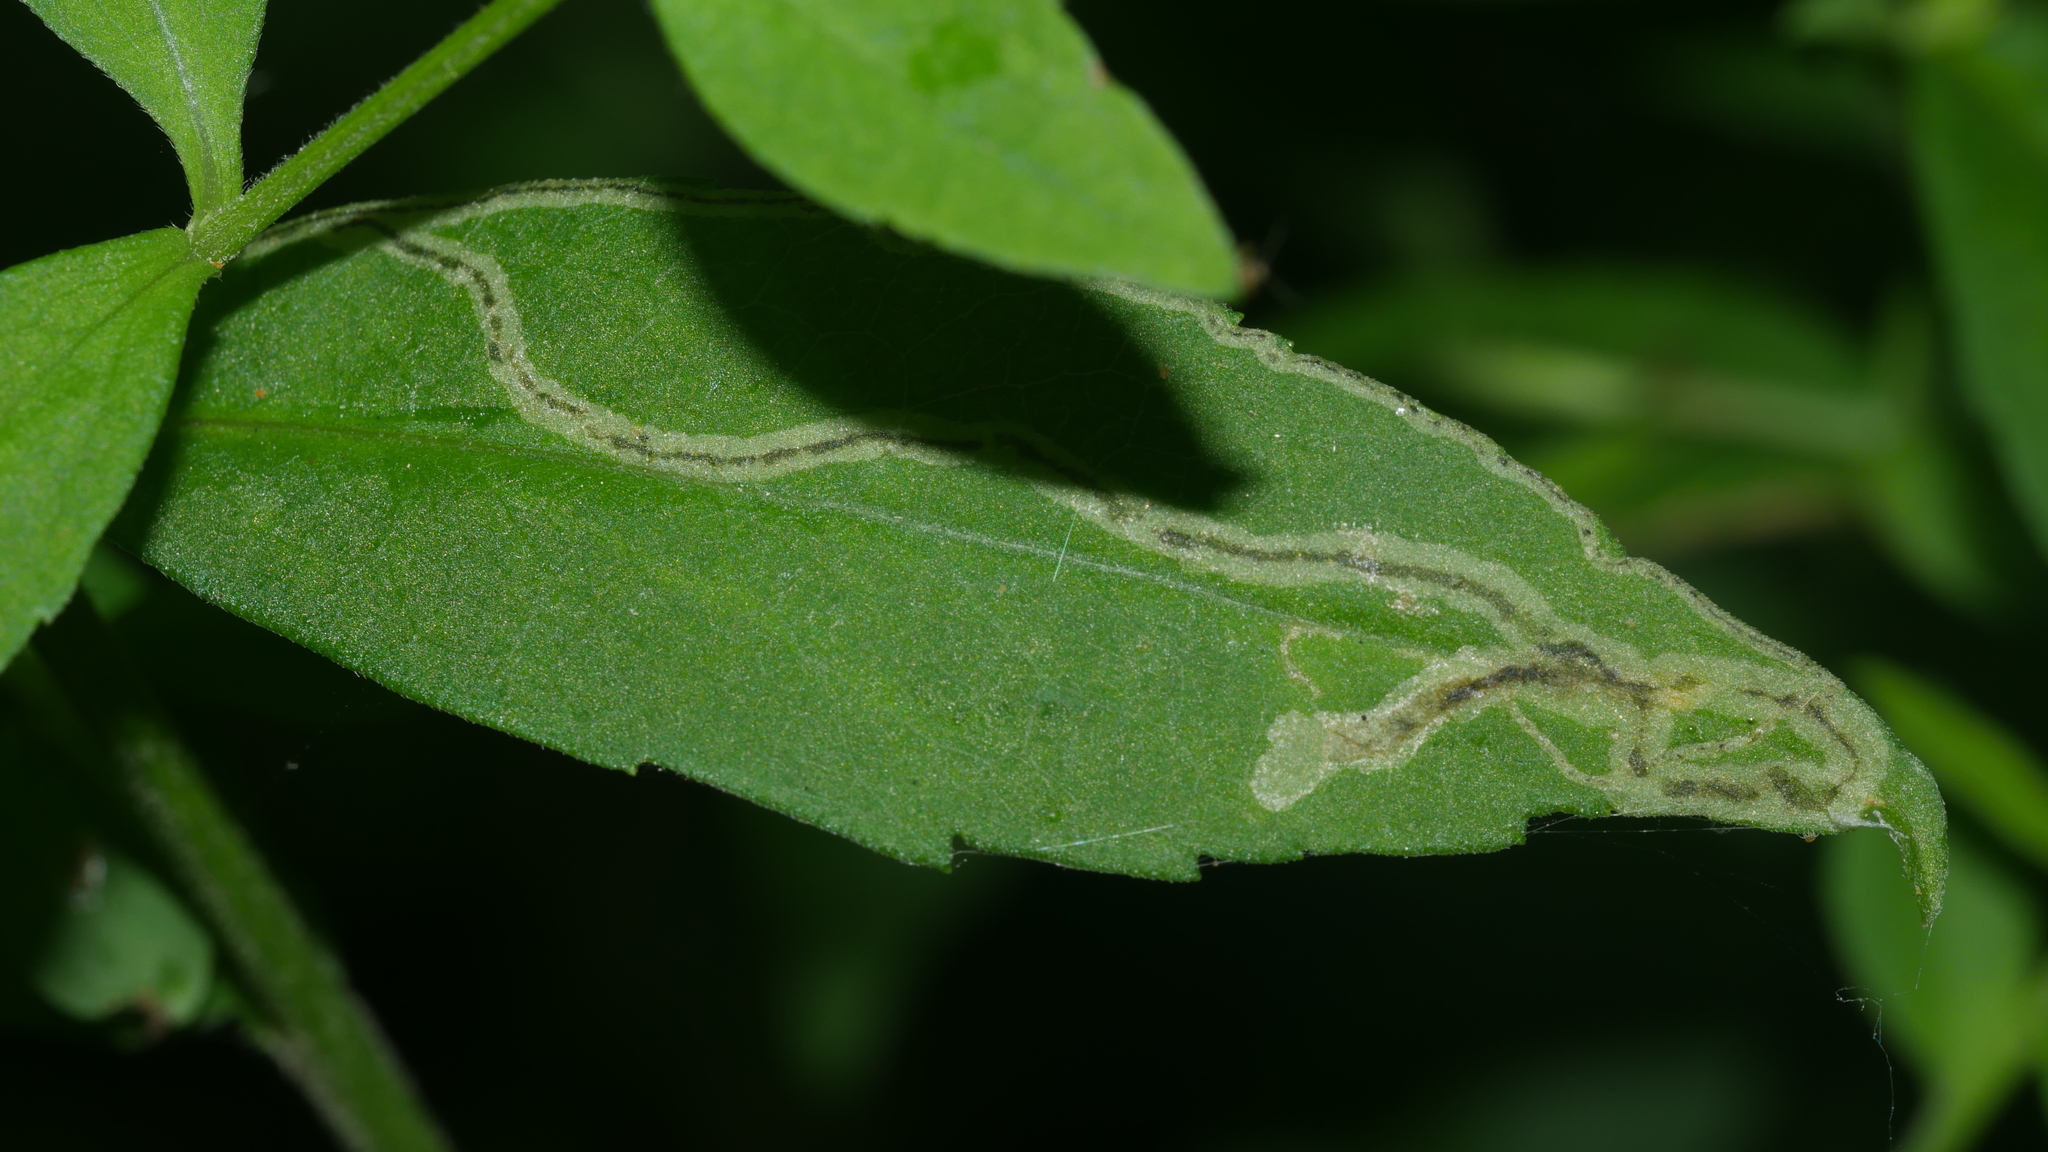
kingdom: Animalia
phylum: Arthropoda
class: Insecta
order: Diptera
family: Agromyzidae
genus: Liriomyza
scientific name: Liriomyza eupatorii
